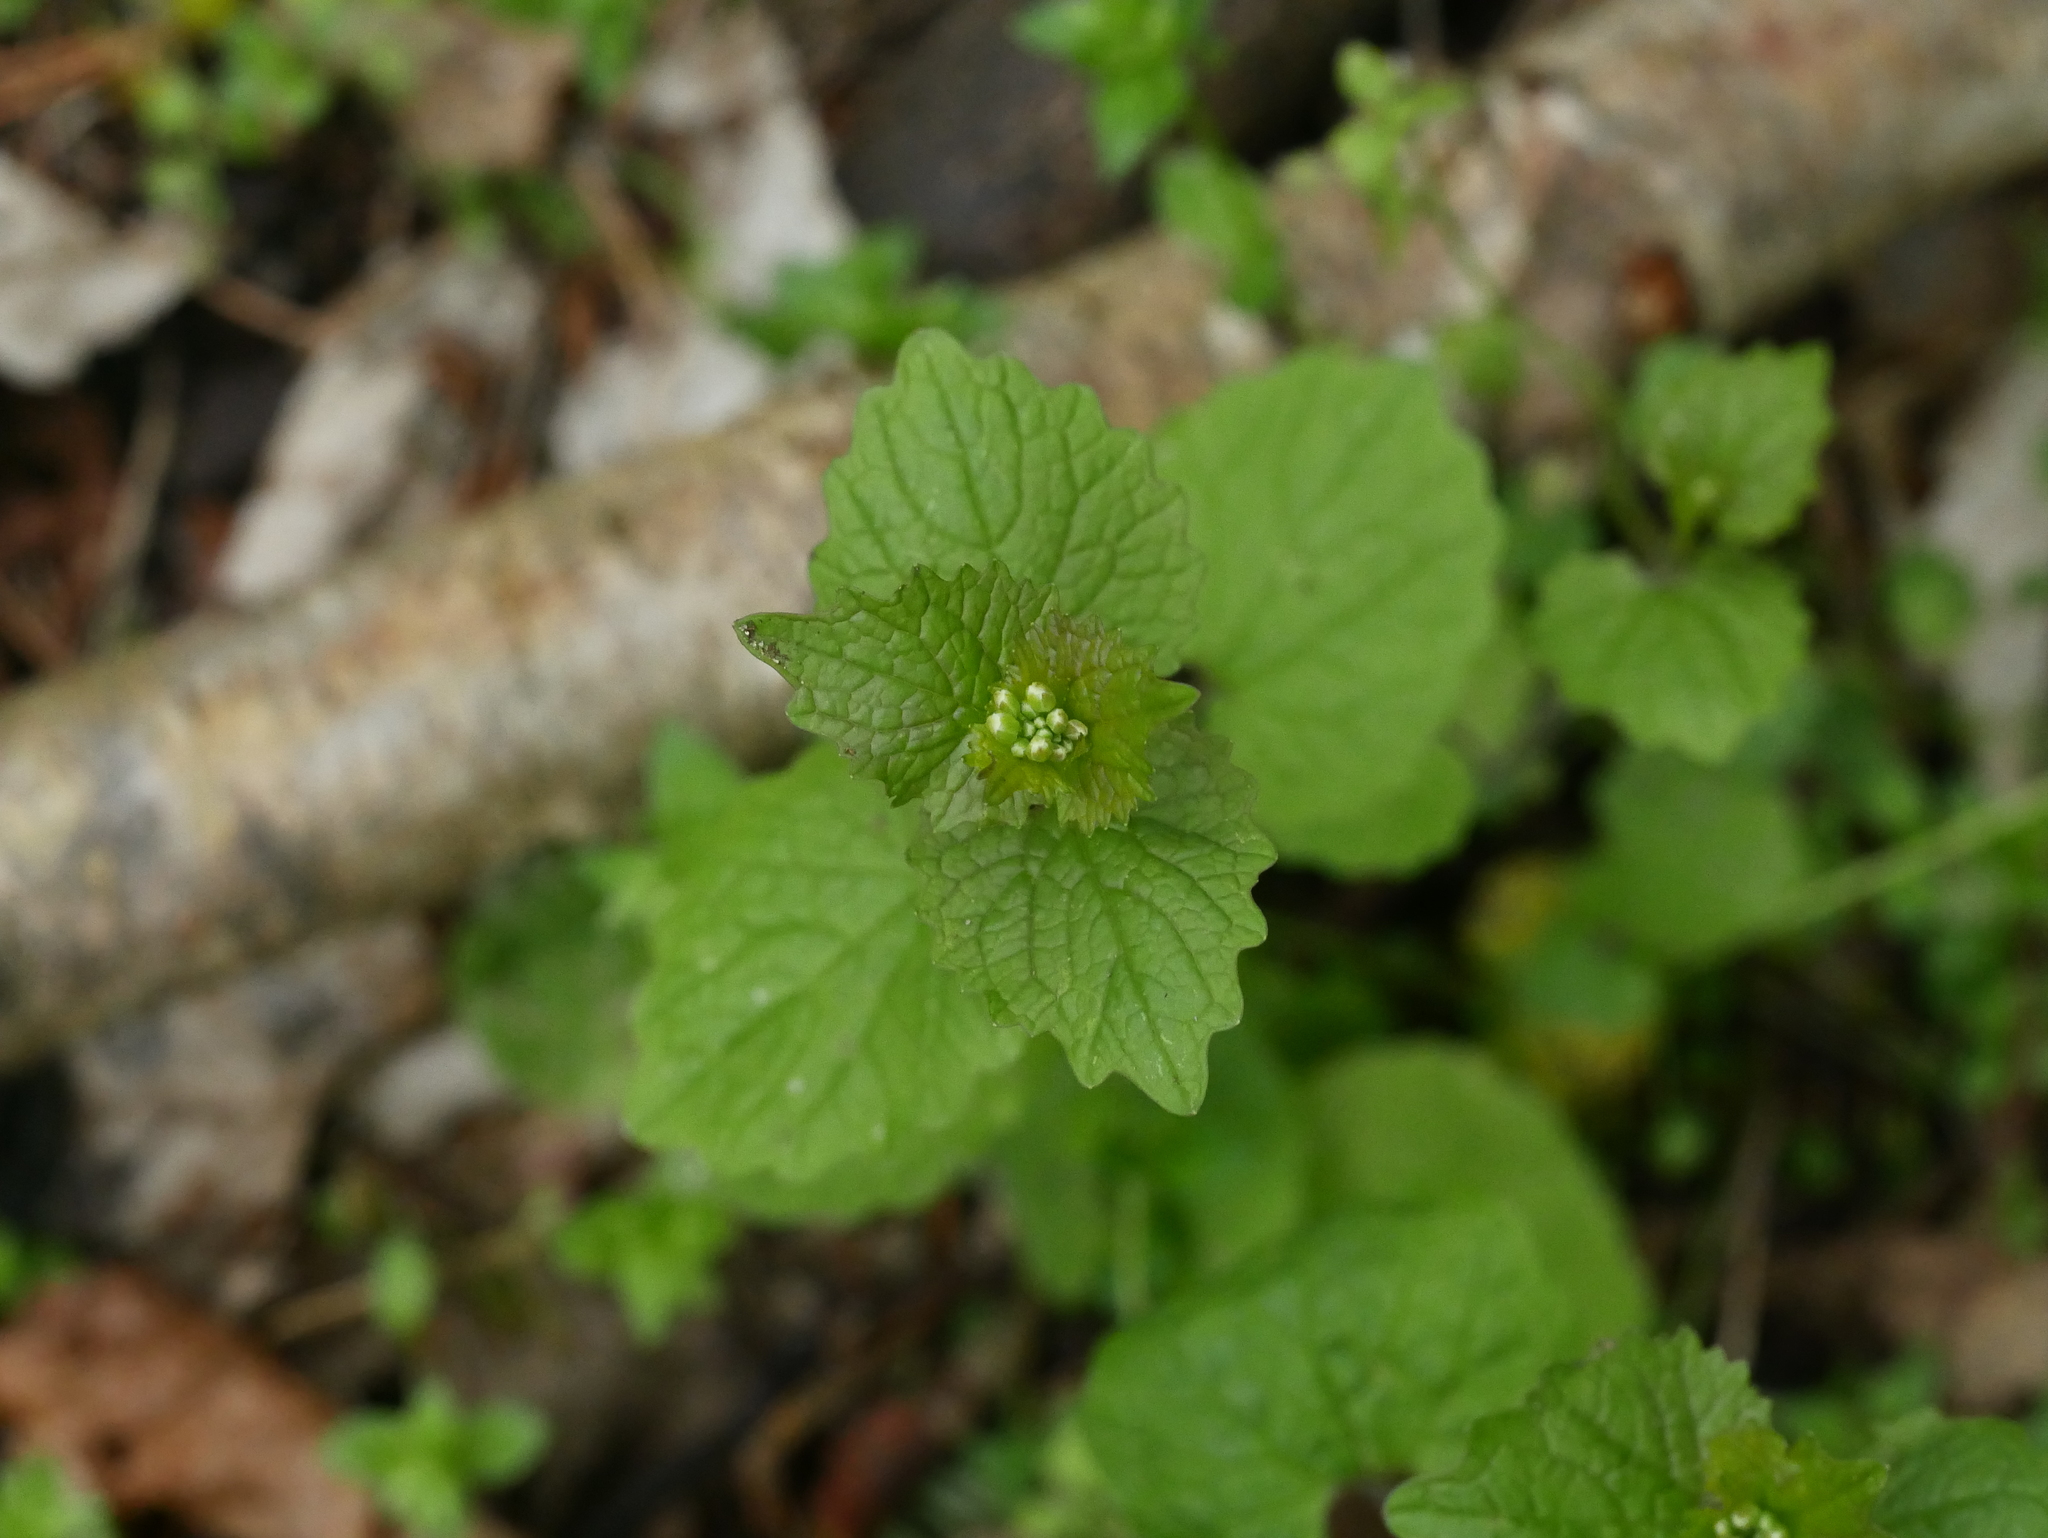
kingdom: Plantae
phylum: Tracheophyta
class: Magnoliopsida
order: Brassicales
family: Brassicaceae
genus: Alliaria
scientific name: Alliaria petiolata
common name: Garlic mustard
